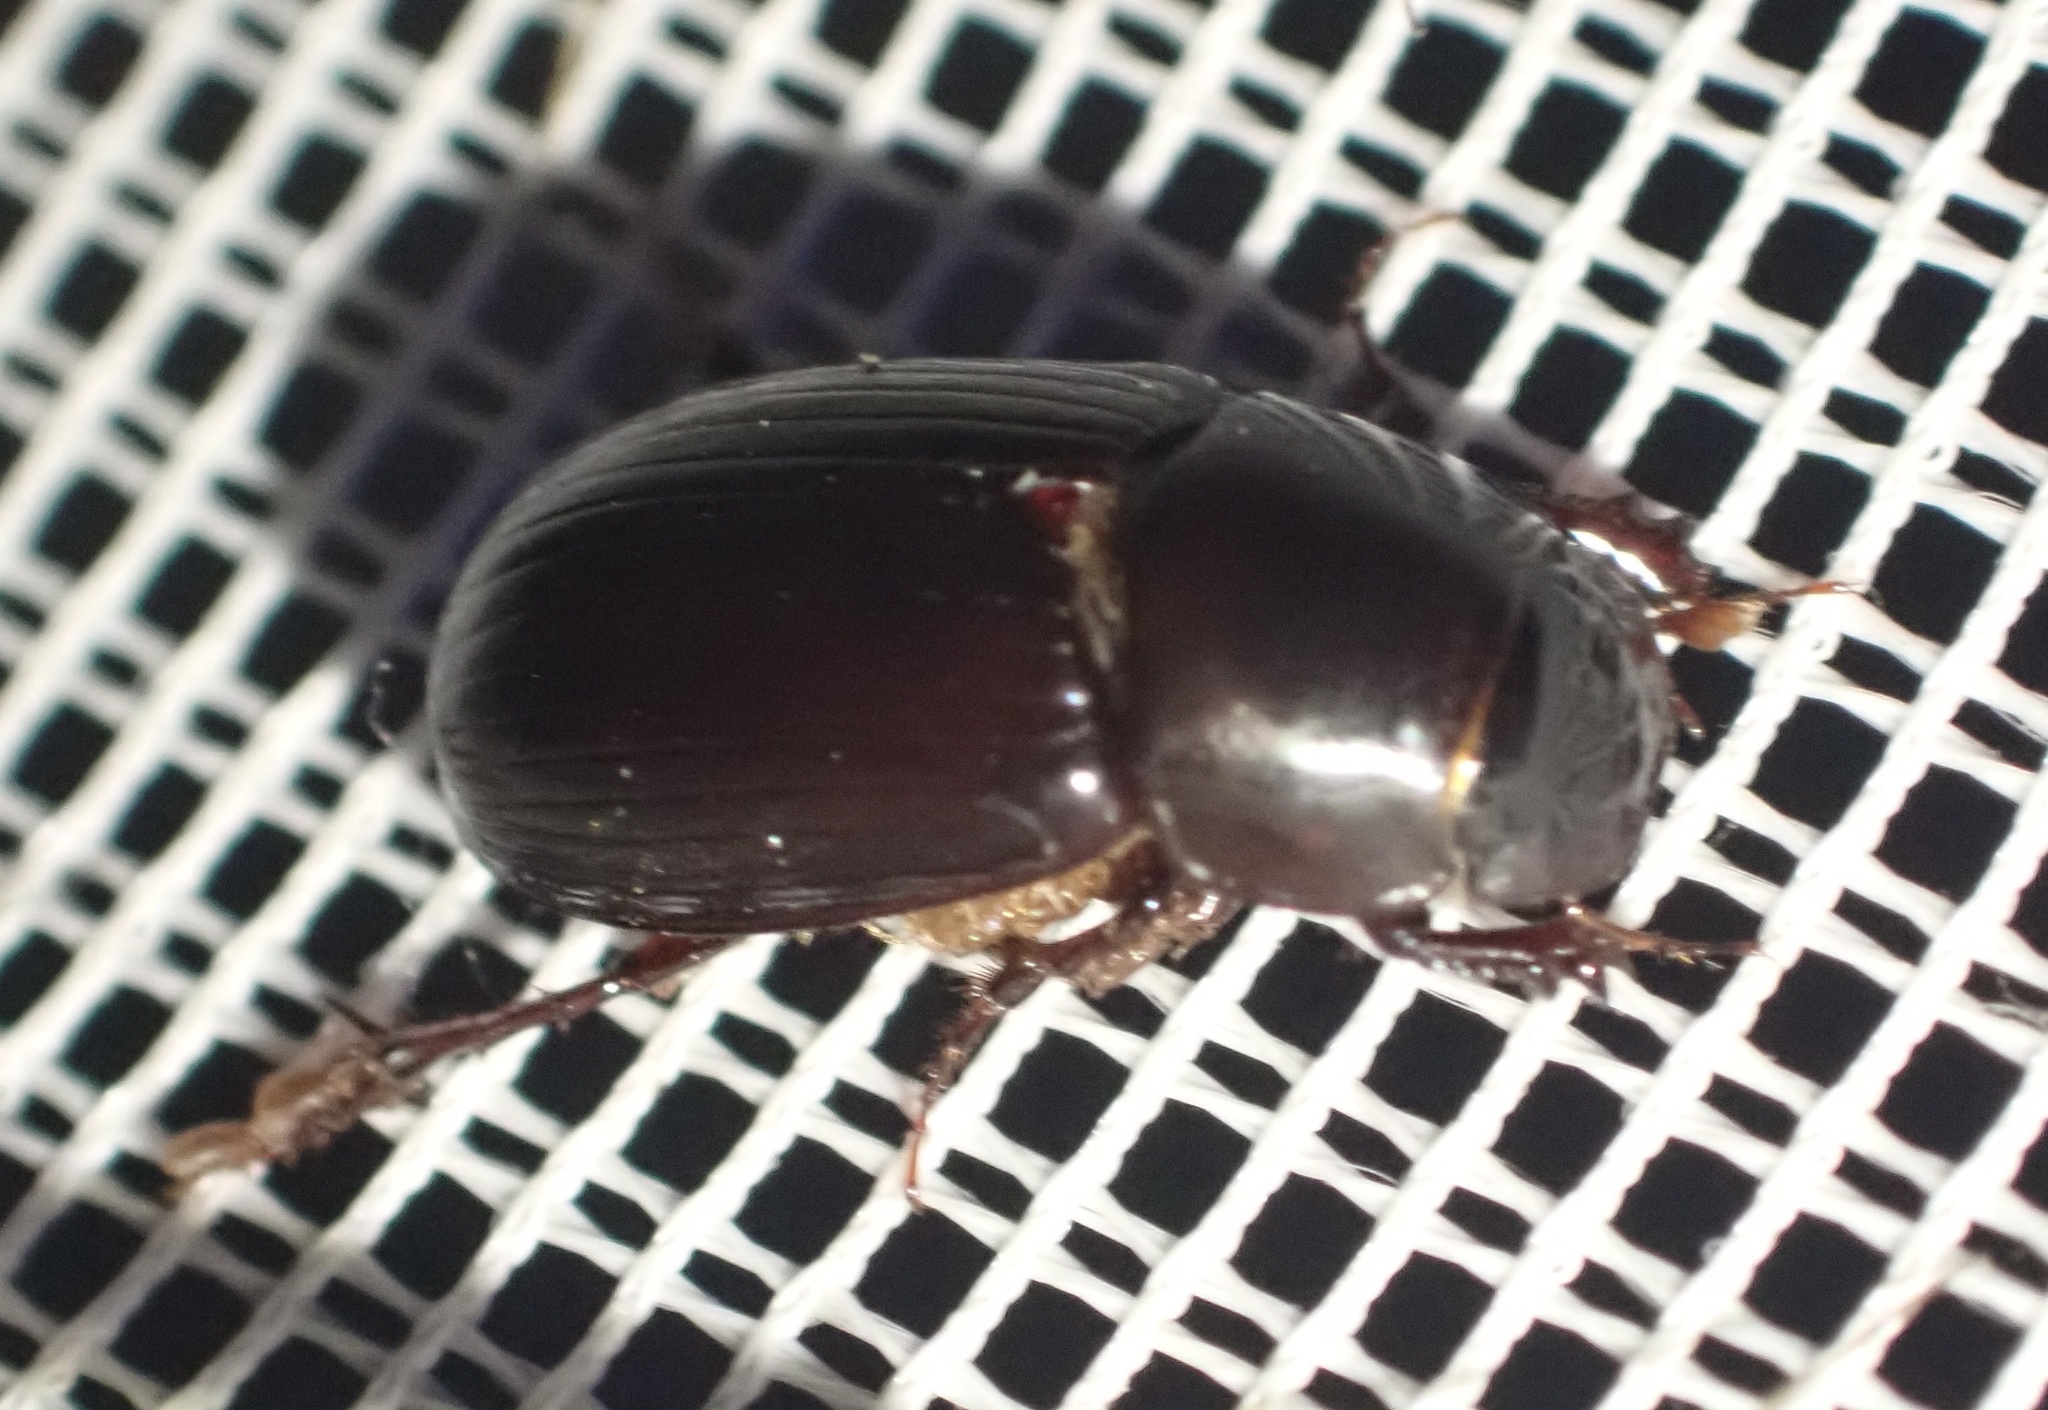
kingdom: Animalia
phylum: Arthropoda
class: Insecta
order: Coleoptera
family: Scarabaeidae
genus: Acrossus
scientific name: Acrossus rufipes
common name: Night-flying dung beetle
